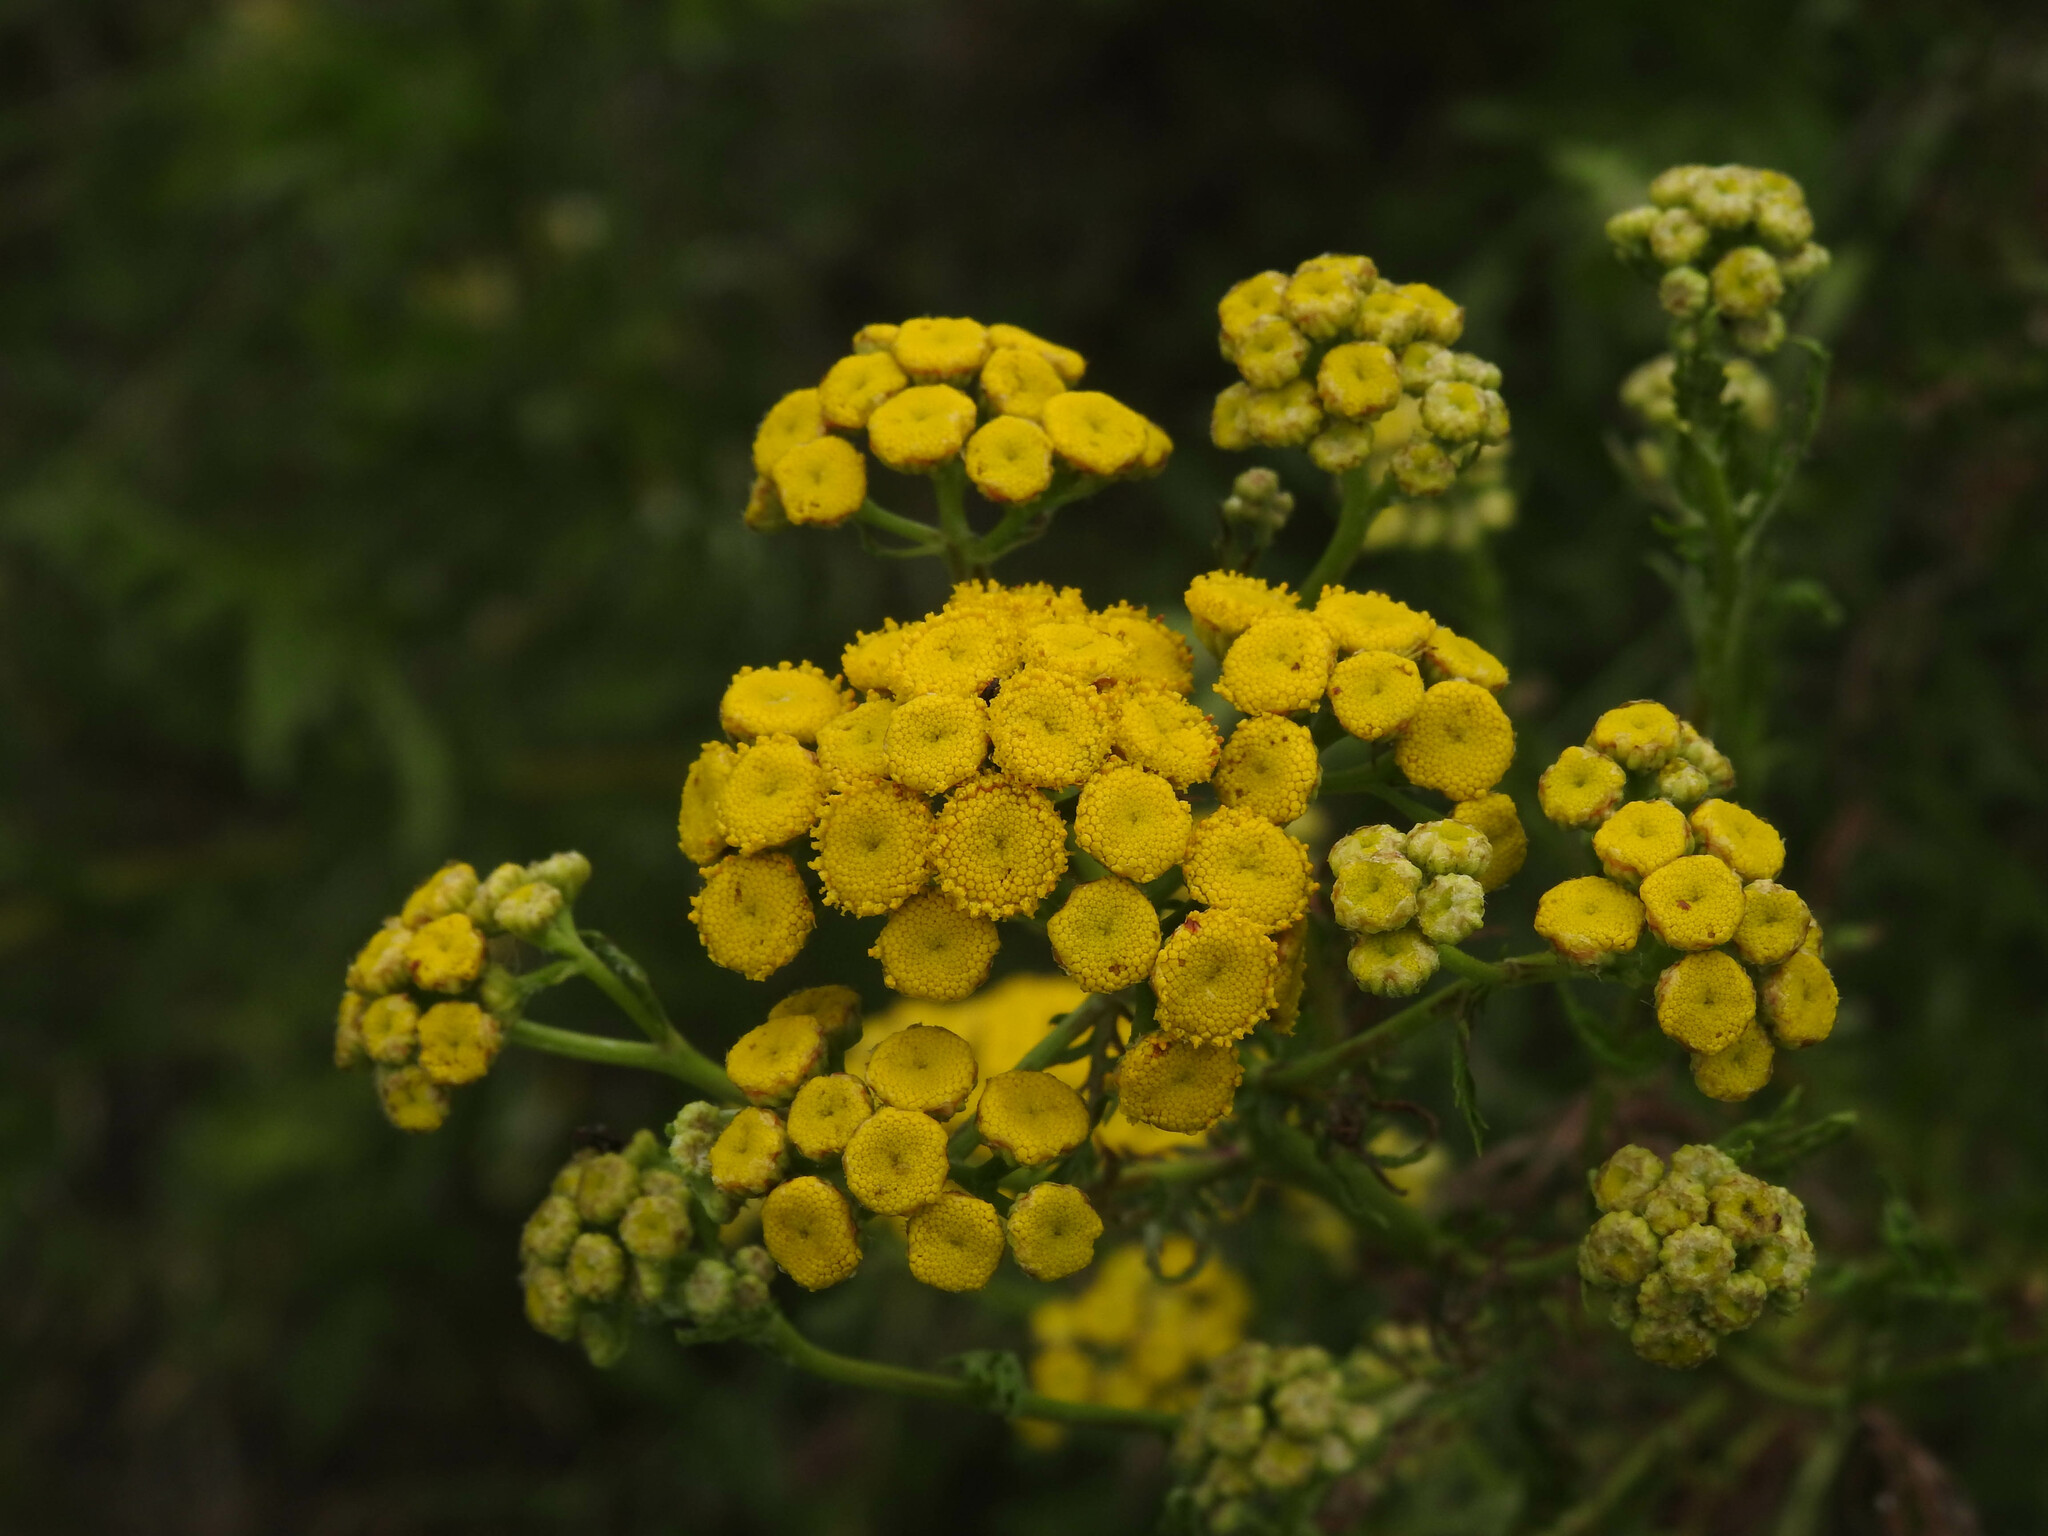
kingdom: Plantae
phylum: Tracheophyta
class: Magnoliopsida
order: Asterales
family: Asteraceae
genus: Tanacetum
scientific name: Tanacetum vulgare
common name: Common tansy
